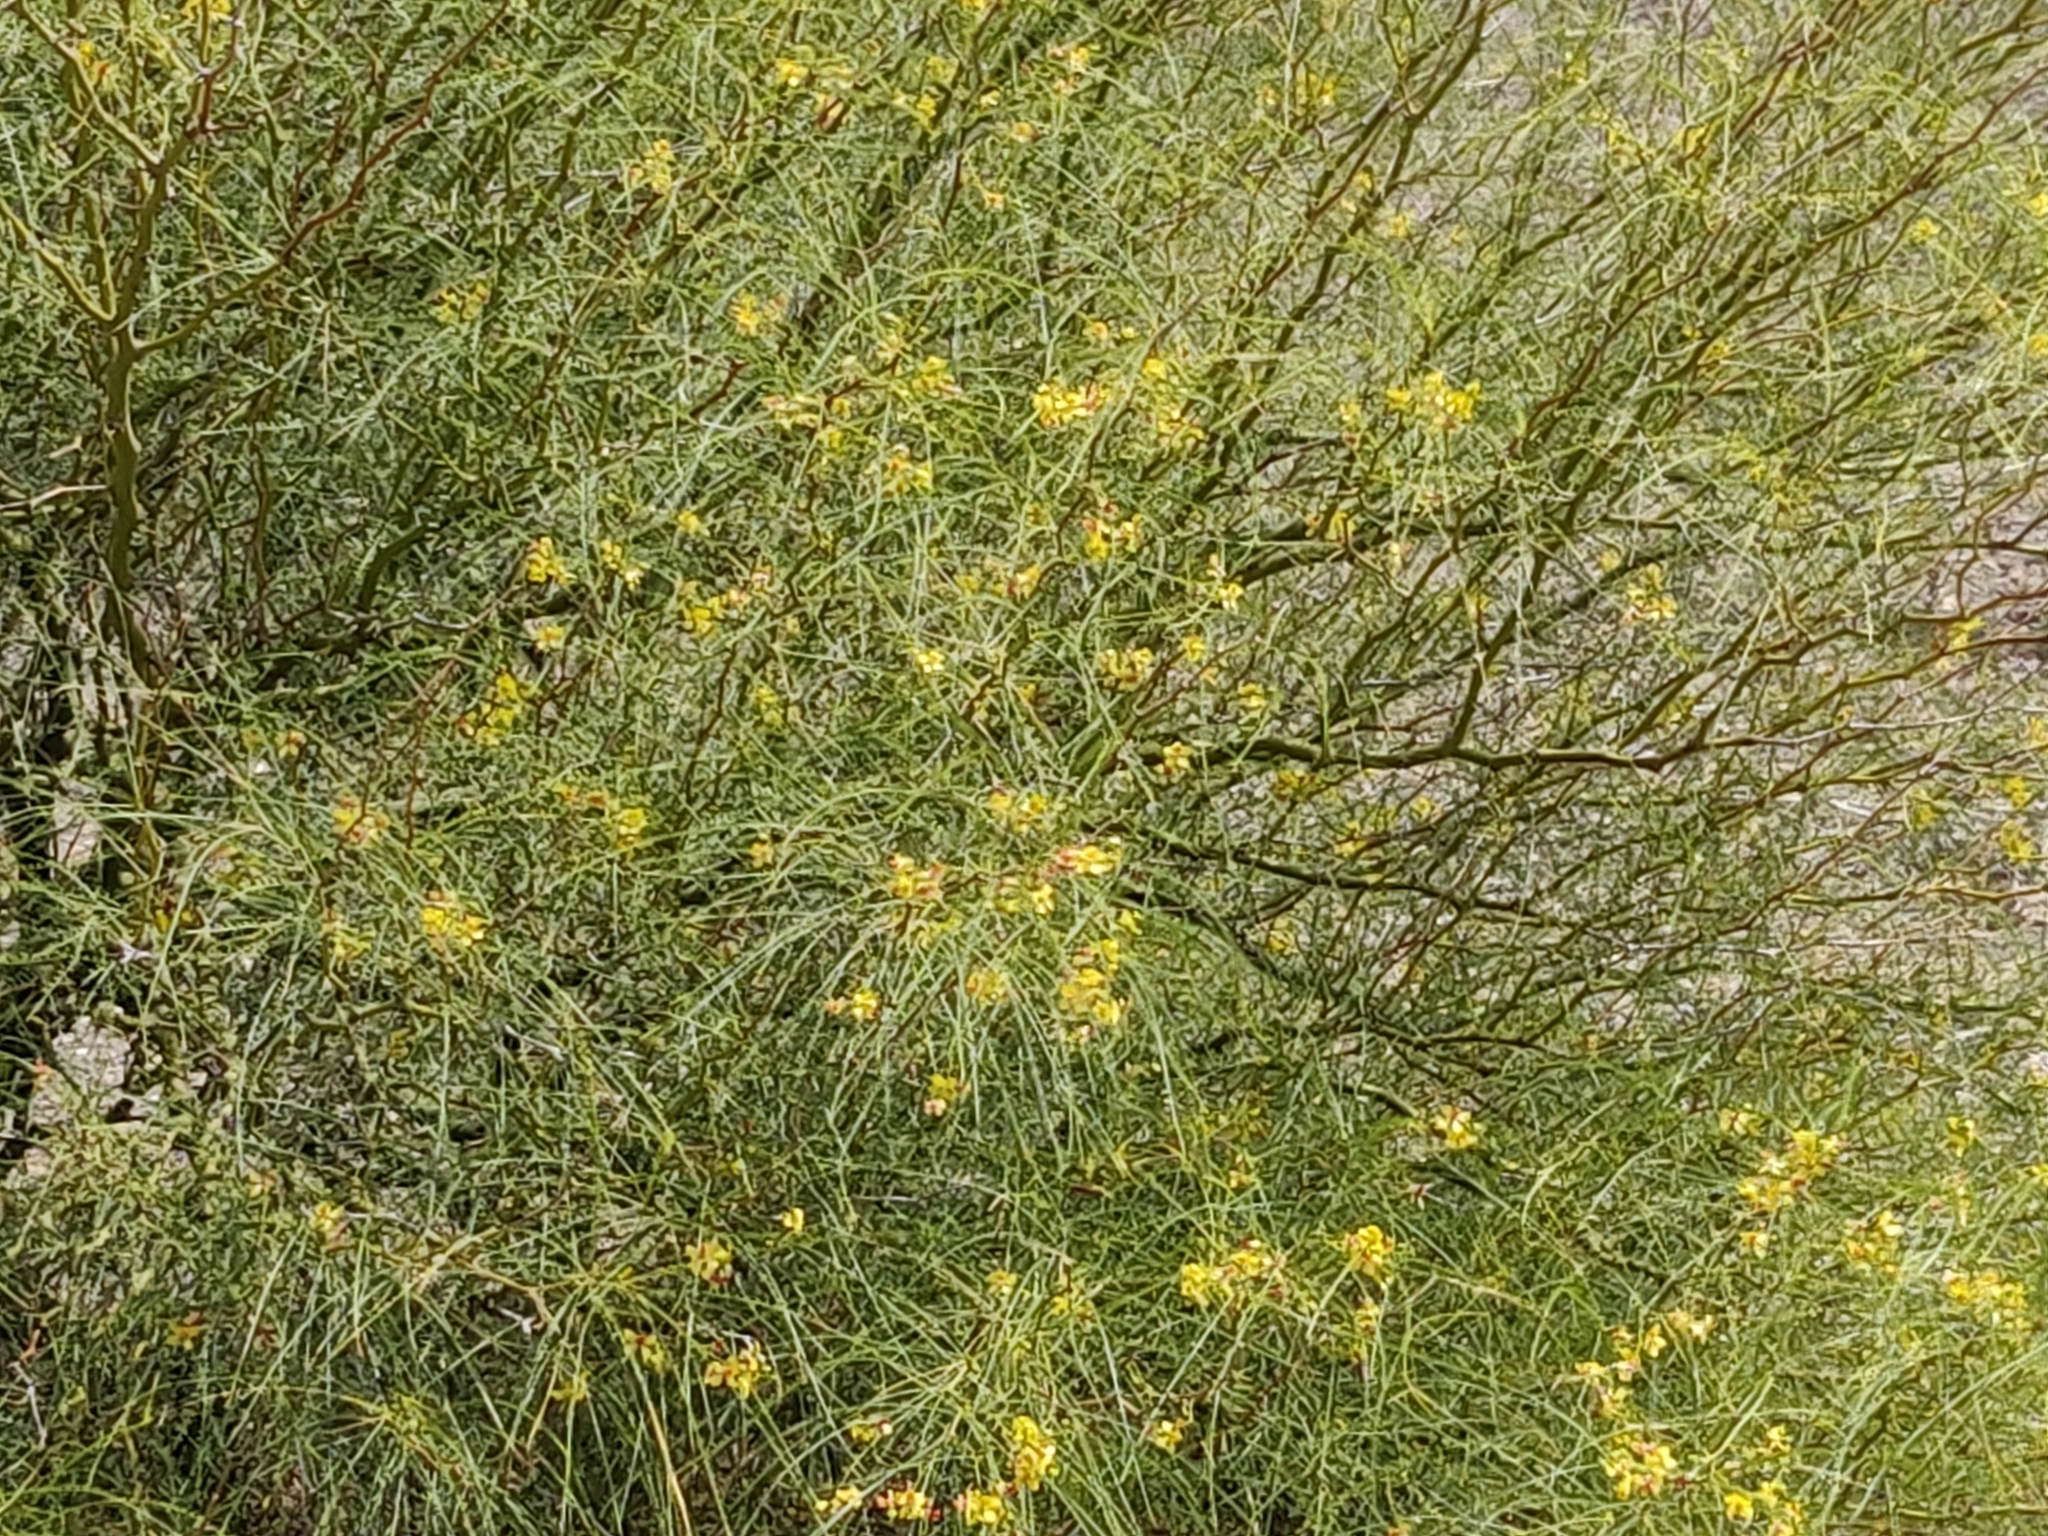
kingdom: Plantae
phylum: Tracheophyta
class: Magnoliopsida
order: Fabales
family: Fabaceae
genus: Parkinsonia
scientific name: Parkinsonia aculeata
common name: Jerusalem thorn
